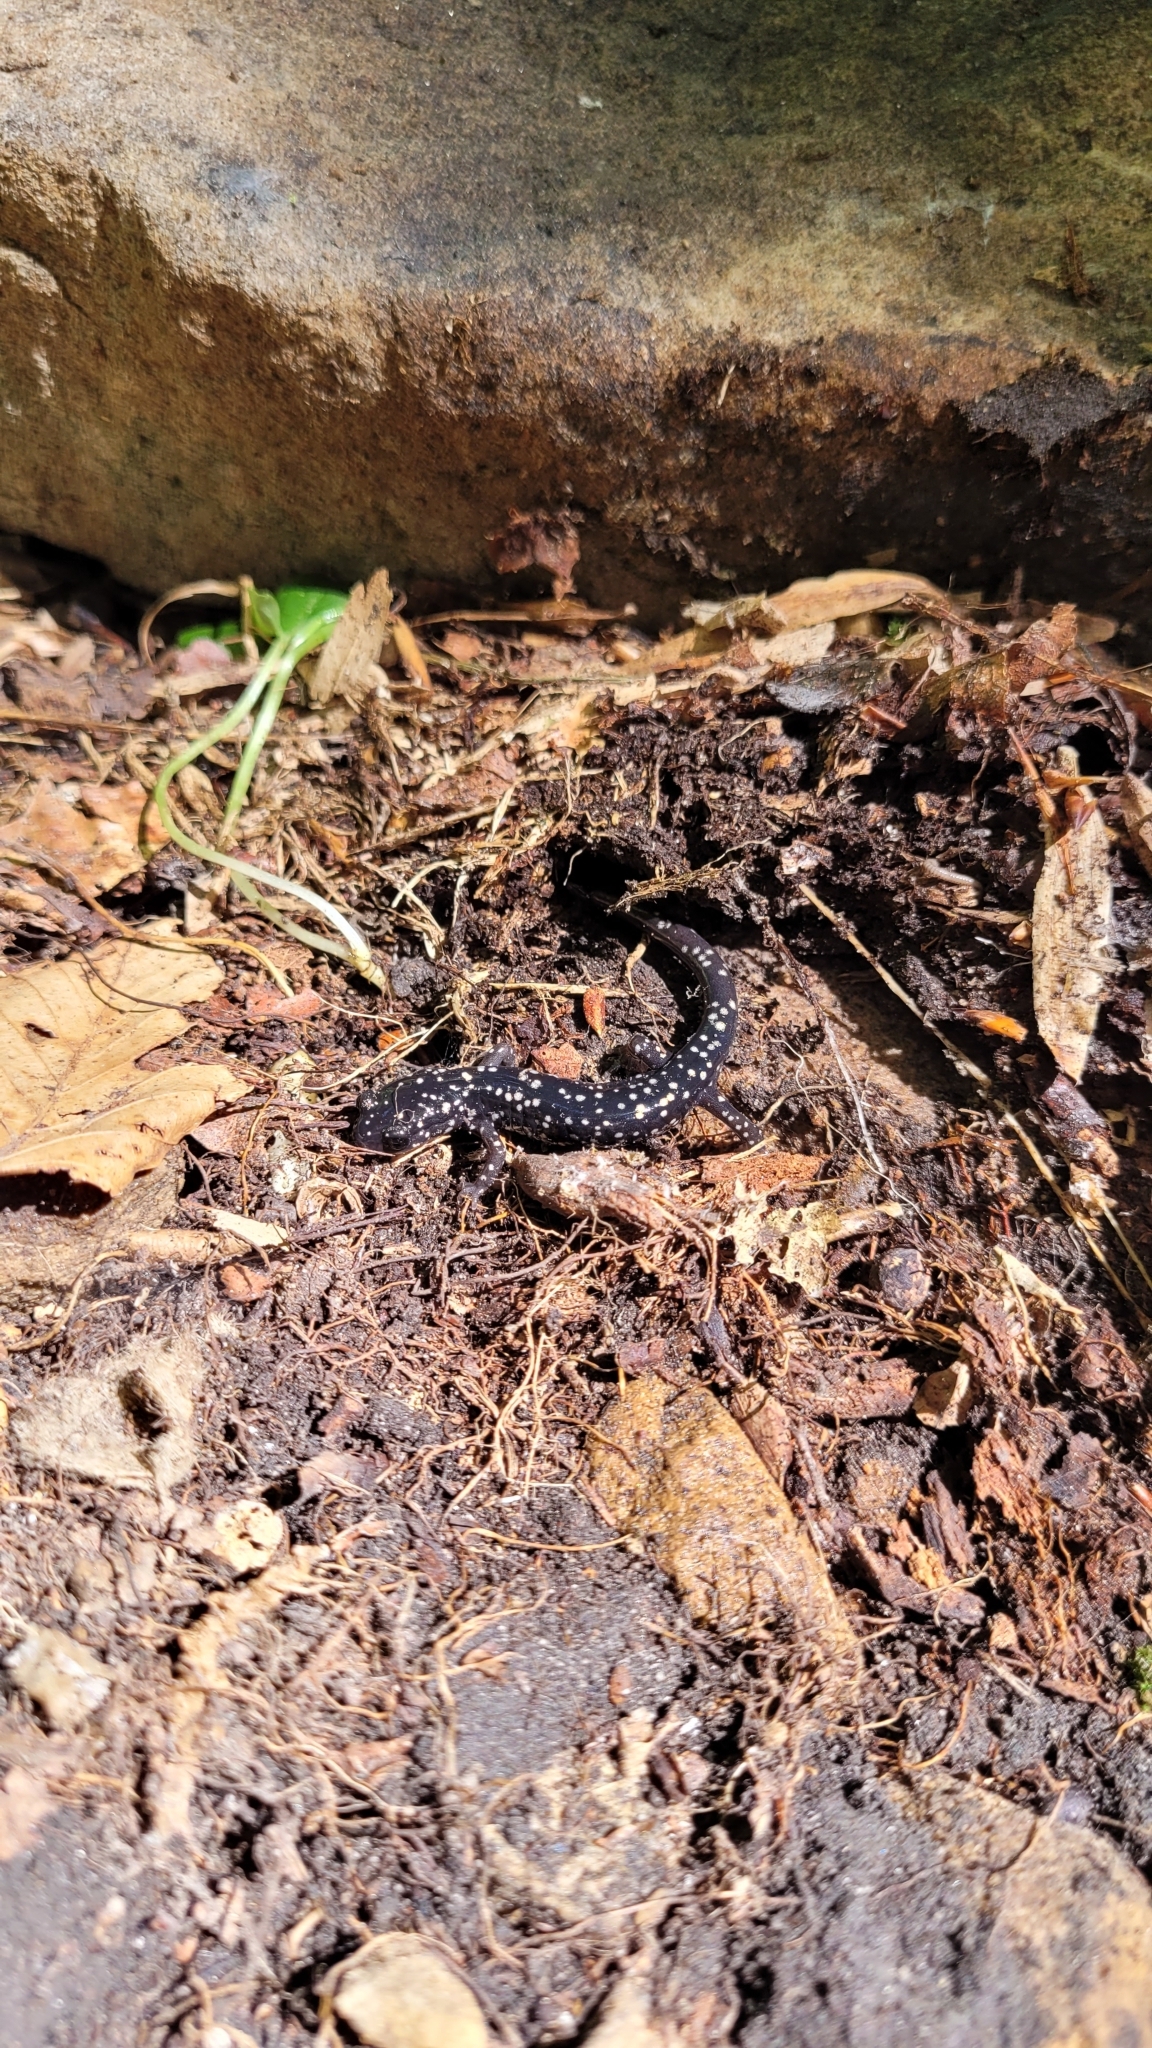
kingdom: Animalia
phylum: Chordata
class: Amphibia
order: Caudata
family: Plethodontidae
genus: Plethodon
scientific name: Plethodon glutinosus
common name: Northern slimy salamander
